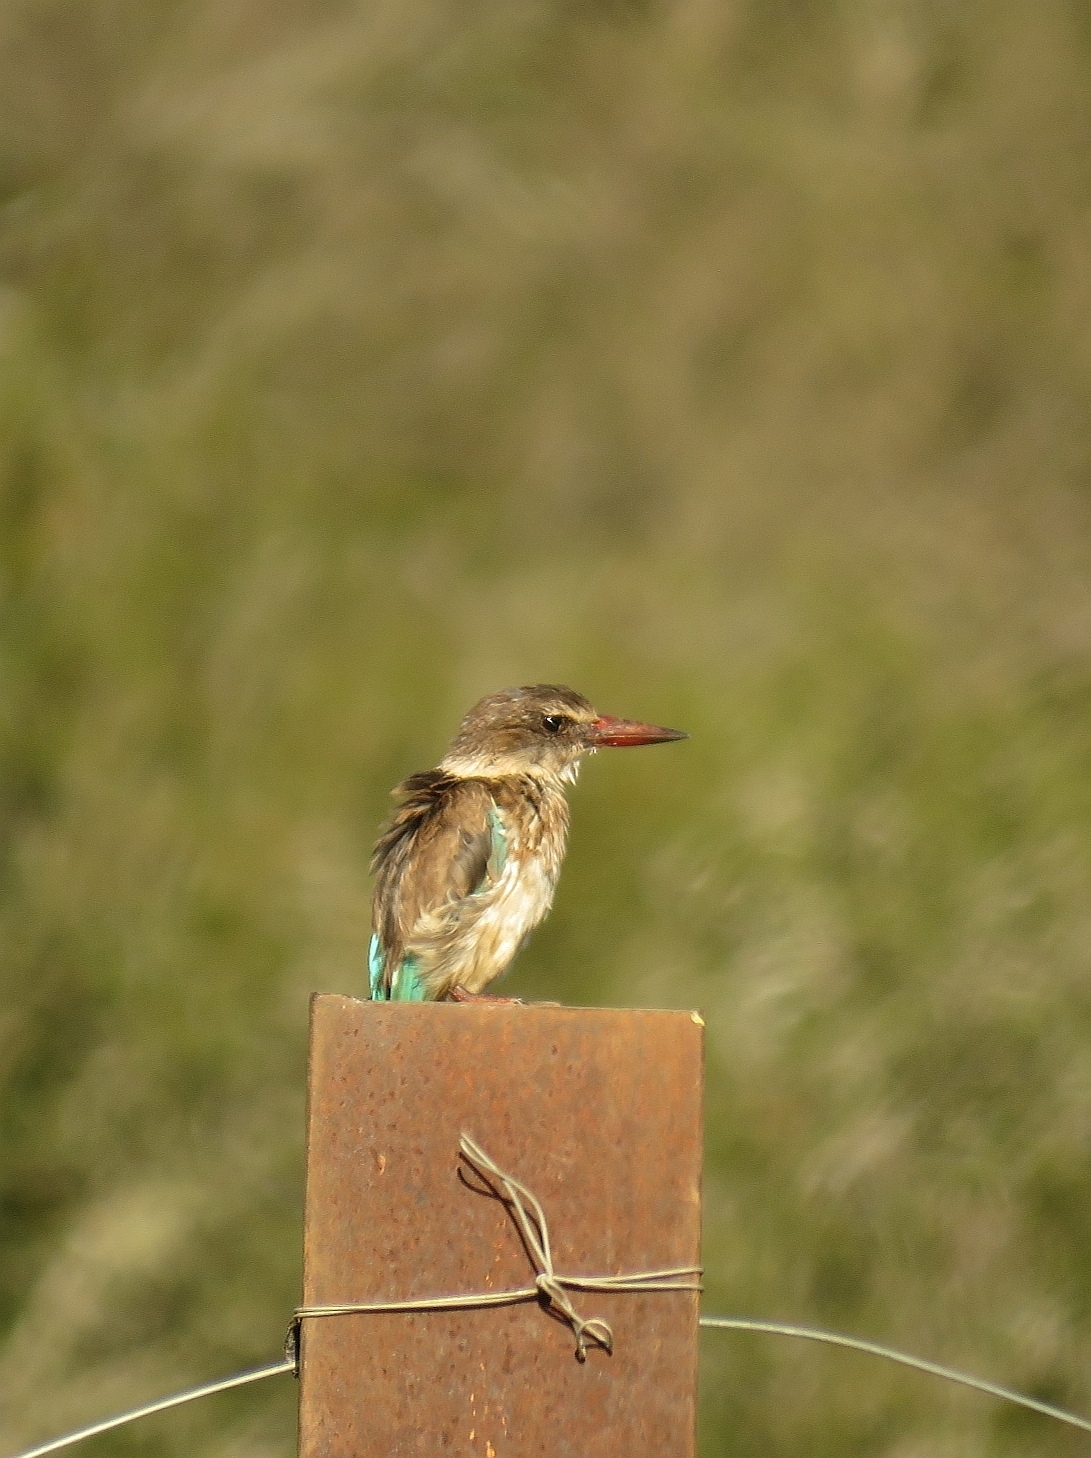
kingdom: Animalia
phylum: Chordata
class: Aves
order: Coraciiformes
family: Alcedinidae
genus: Halcyon
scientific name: Halcyon albiventris
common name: Brown-hooded kingfisher
